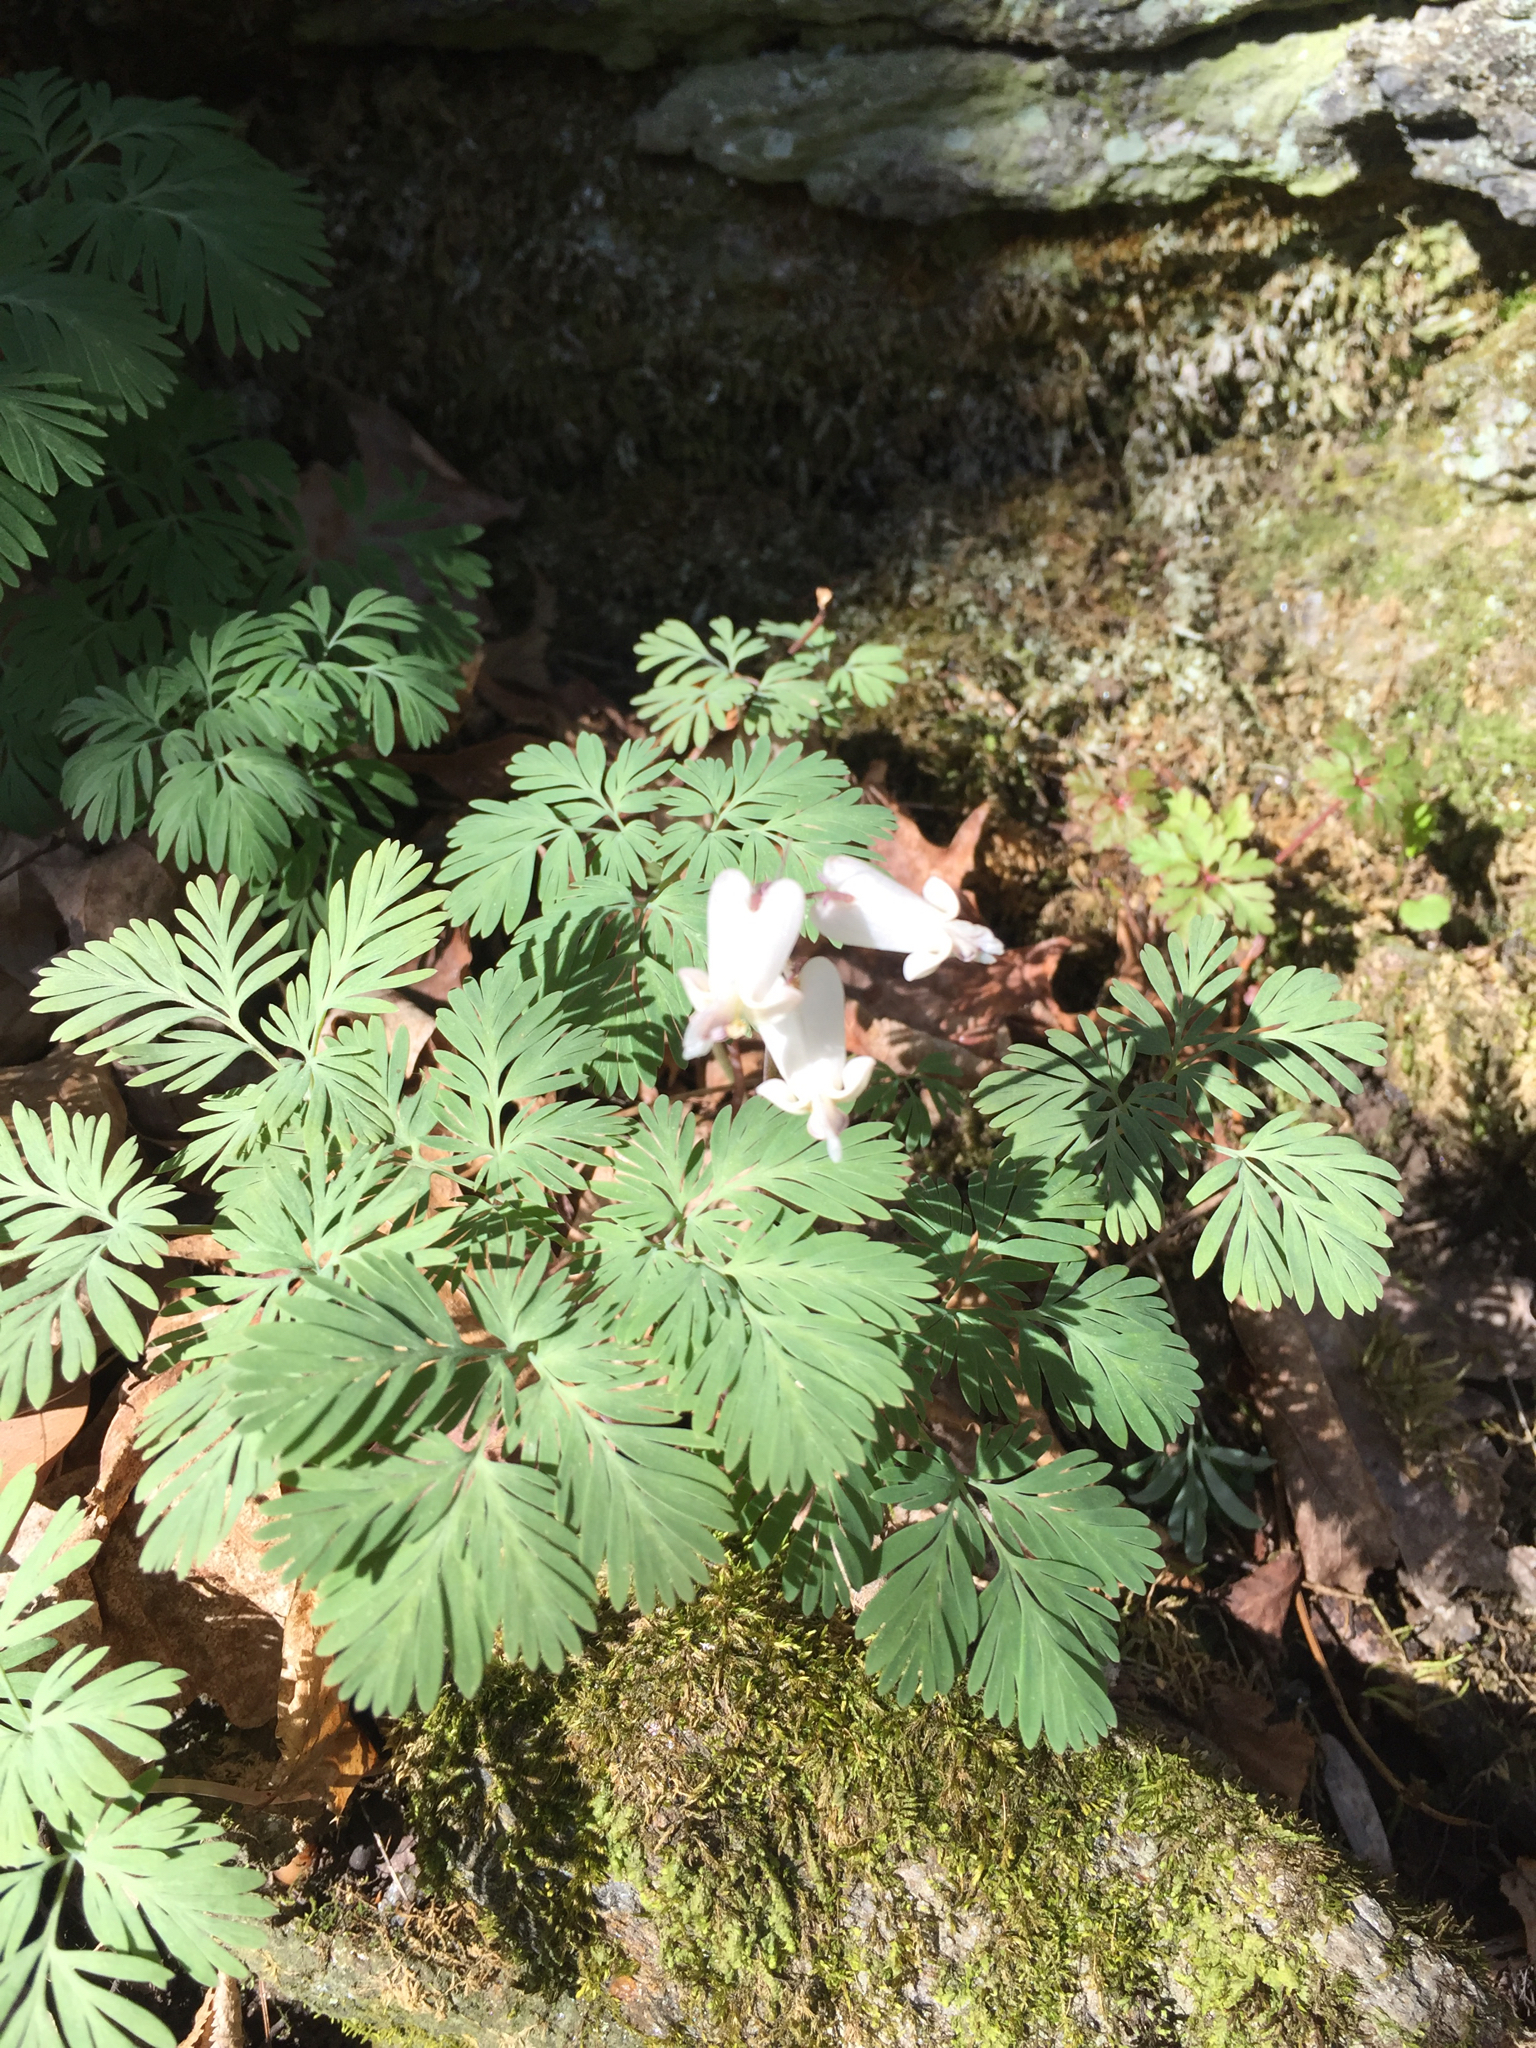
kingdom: Plantae
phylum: Tracheophyta
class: Magnoliopsida
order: Ranunculales
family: Papaveraceae
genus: Dicentra
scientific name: Dicentra cucullaria
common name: Dutchman's breeches
